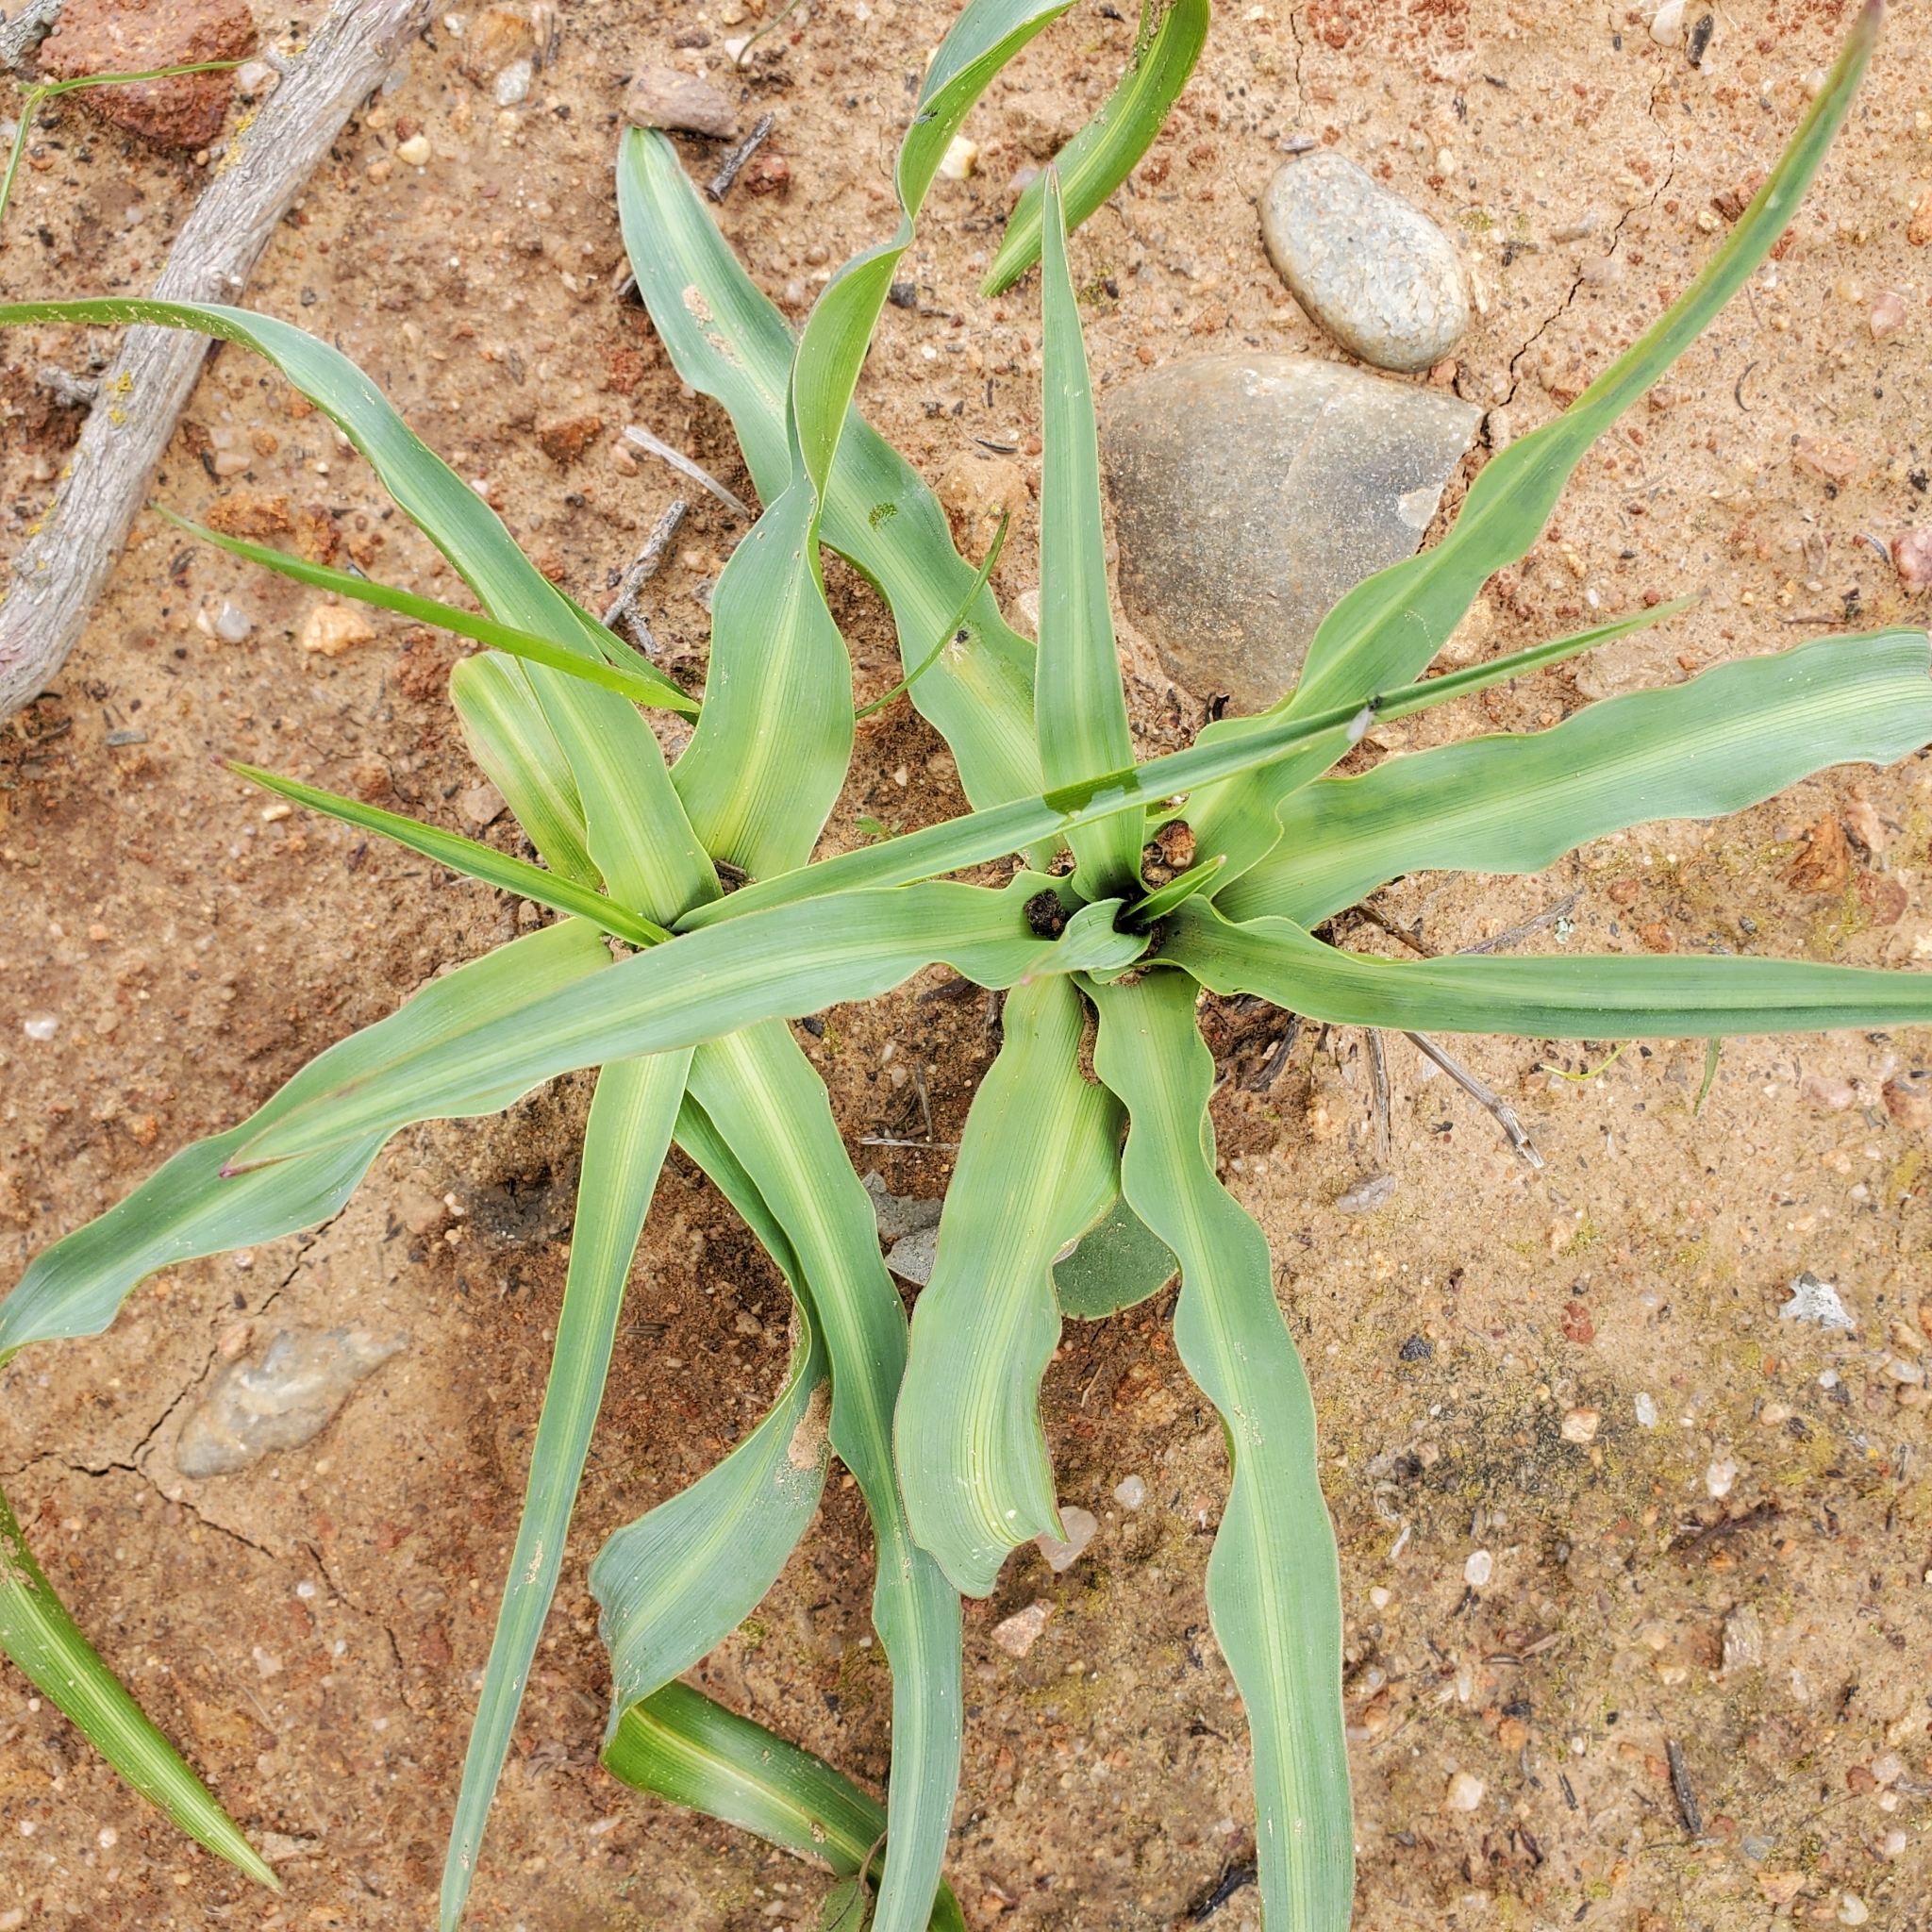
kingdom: Plantae
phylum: Tracheophyta
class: Liliopsida
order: Asparagales
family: Asparagaceae
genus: Chlorogalum
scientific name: Chlorogalum pomeridianum
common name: Amole
